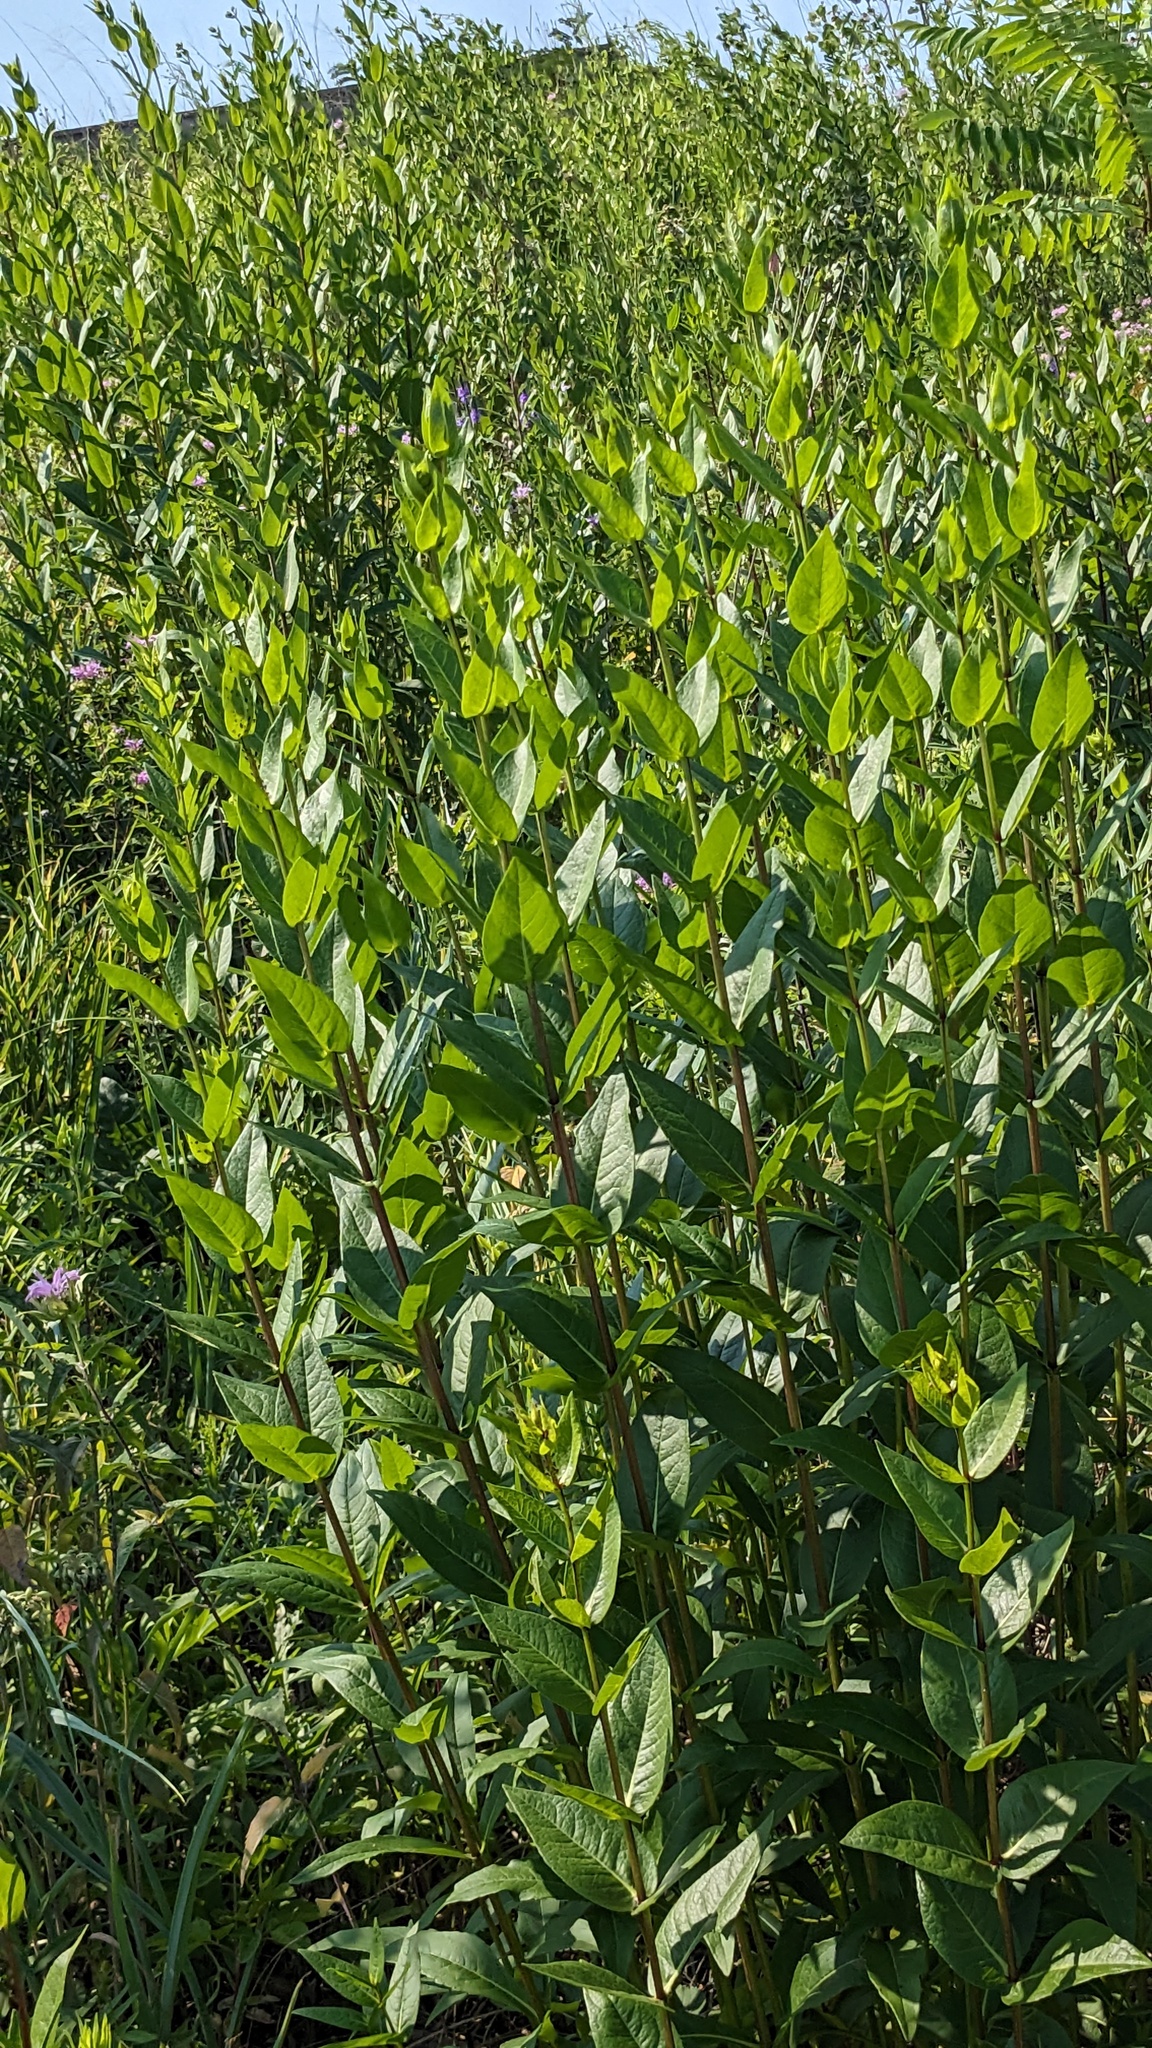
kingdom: Plantae
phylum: Tracheophyta
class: Magnoliopsida
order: Asterales
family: Asteraceae
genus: Silphium
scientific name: Silphium integrifolium
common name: Whole-leaf rosinweed
